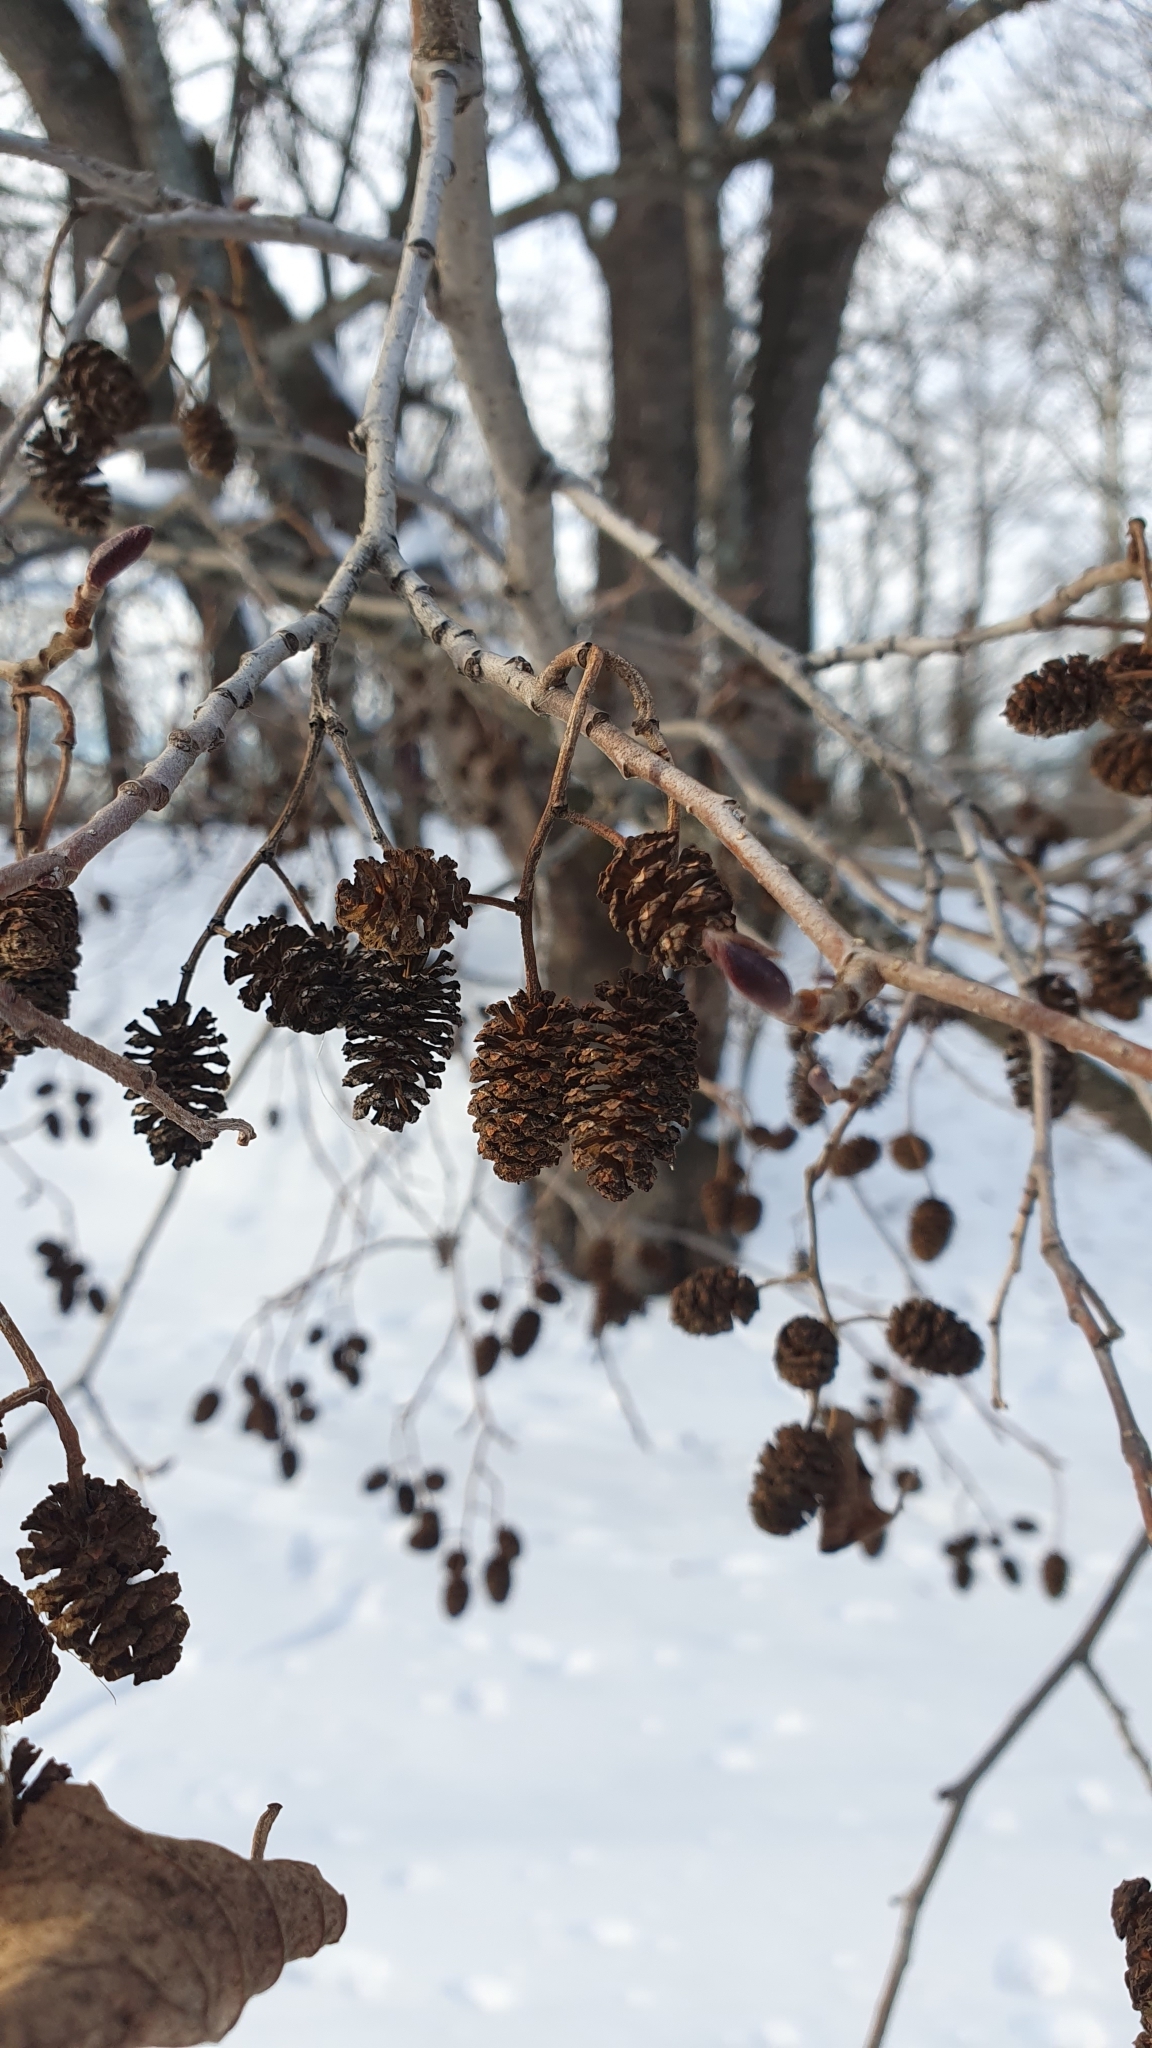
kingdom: Plantae
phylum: Tracheophyta
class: Magnoliopsida
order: Fagales
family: Betulaceae
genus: Alnus
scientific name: Alnus glutinosa
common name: Black alder
